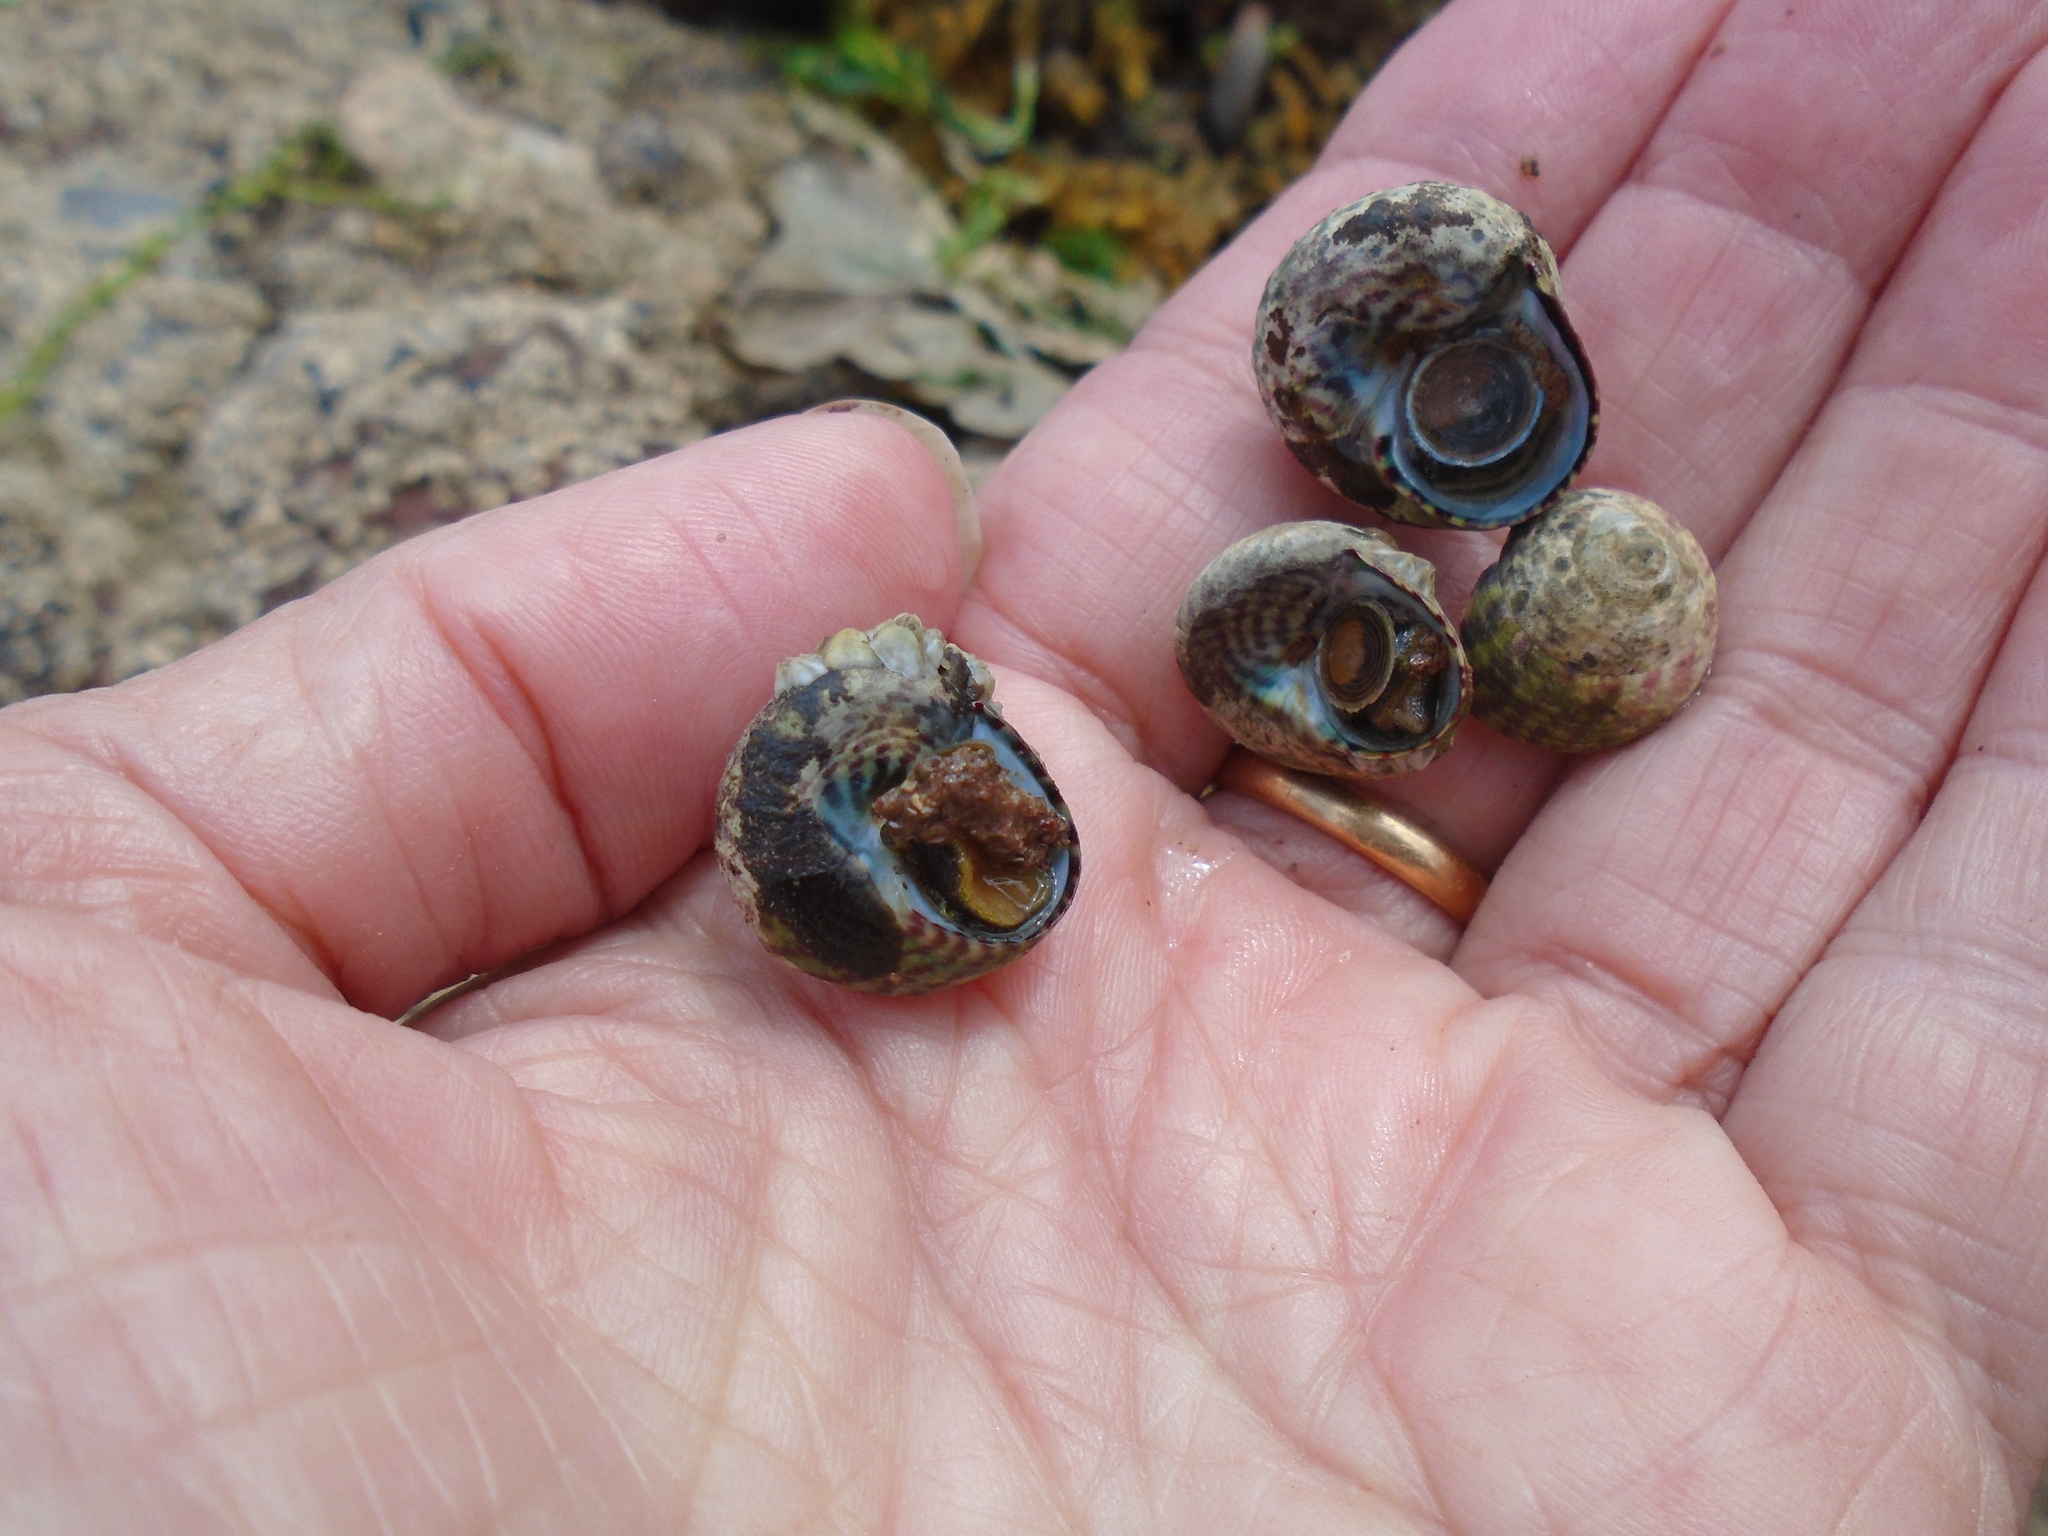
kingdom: Animalia
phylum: Mollusca
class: Gastropoda
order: Trochida
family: Trochidae
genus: Steromphala
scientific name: Steromphala umbilicalis
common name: Flat top shell
